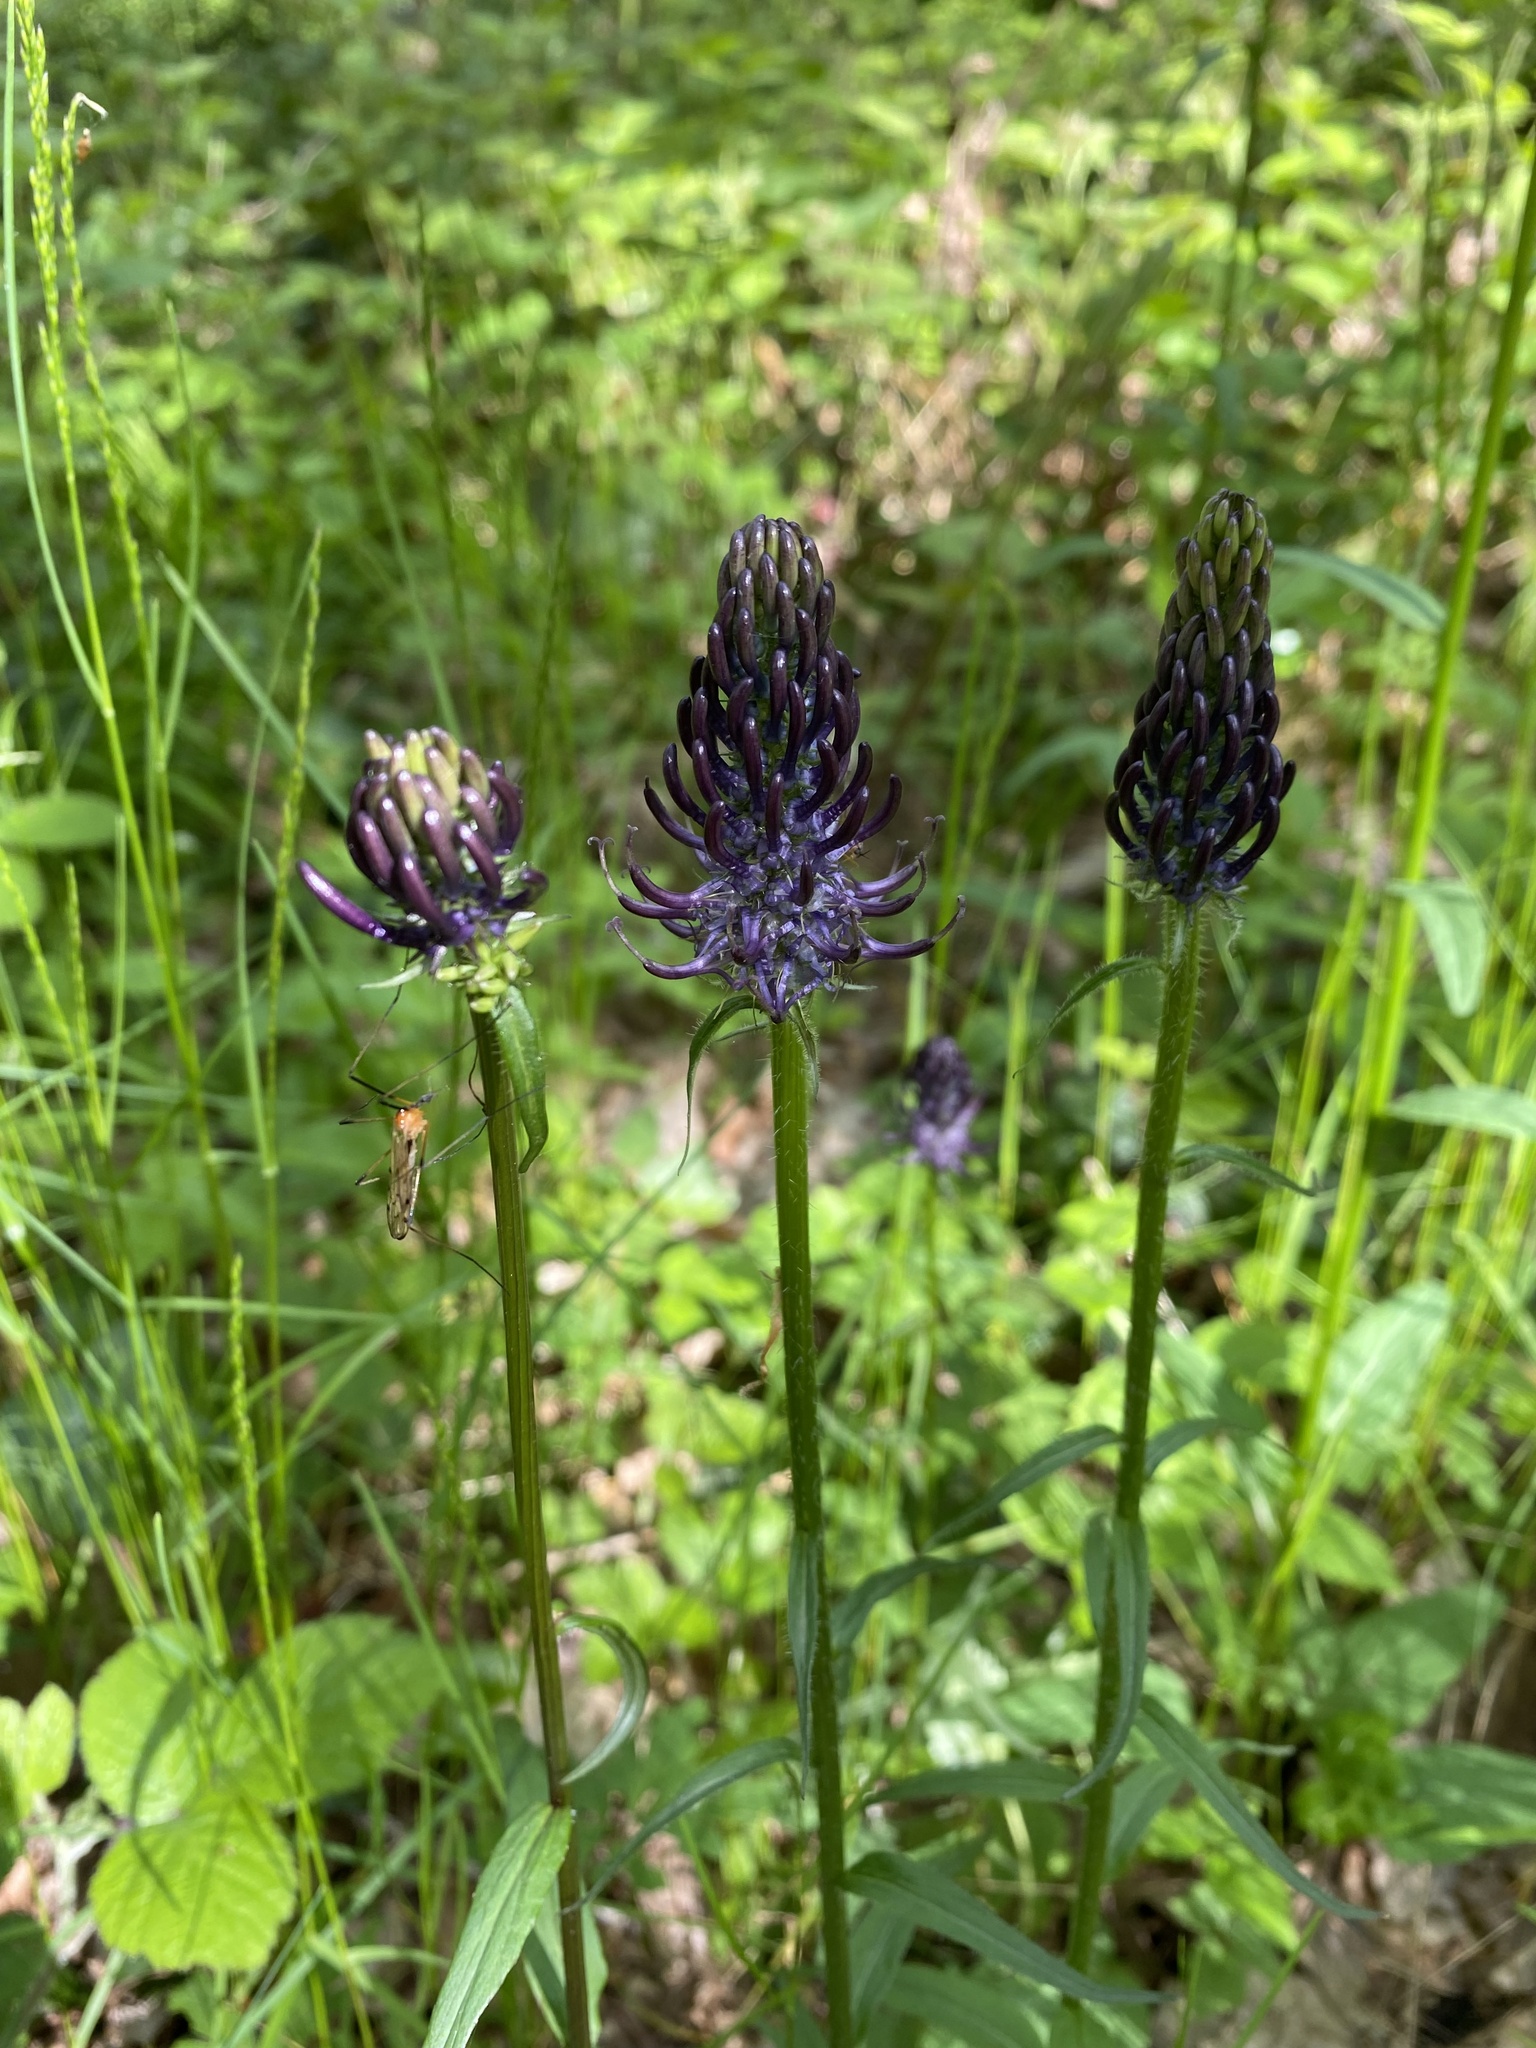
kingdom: Plantae
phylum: Tracheophyta
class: Magnoliopsida
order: Asterales
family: Campanulaceae
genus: Phyteuma
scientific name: Phyteuma nigrum
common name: Black rampion
